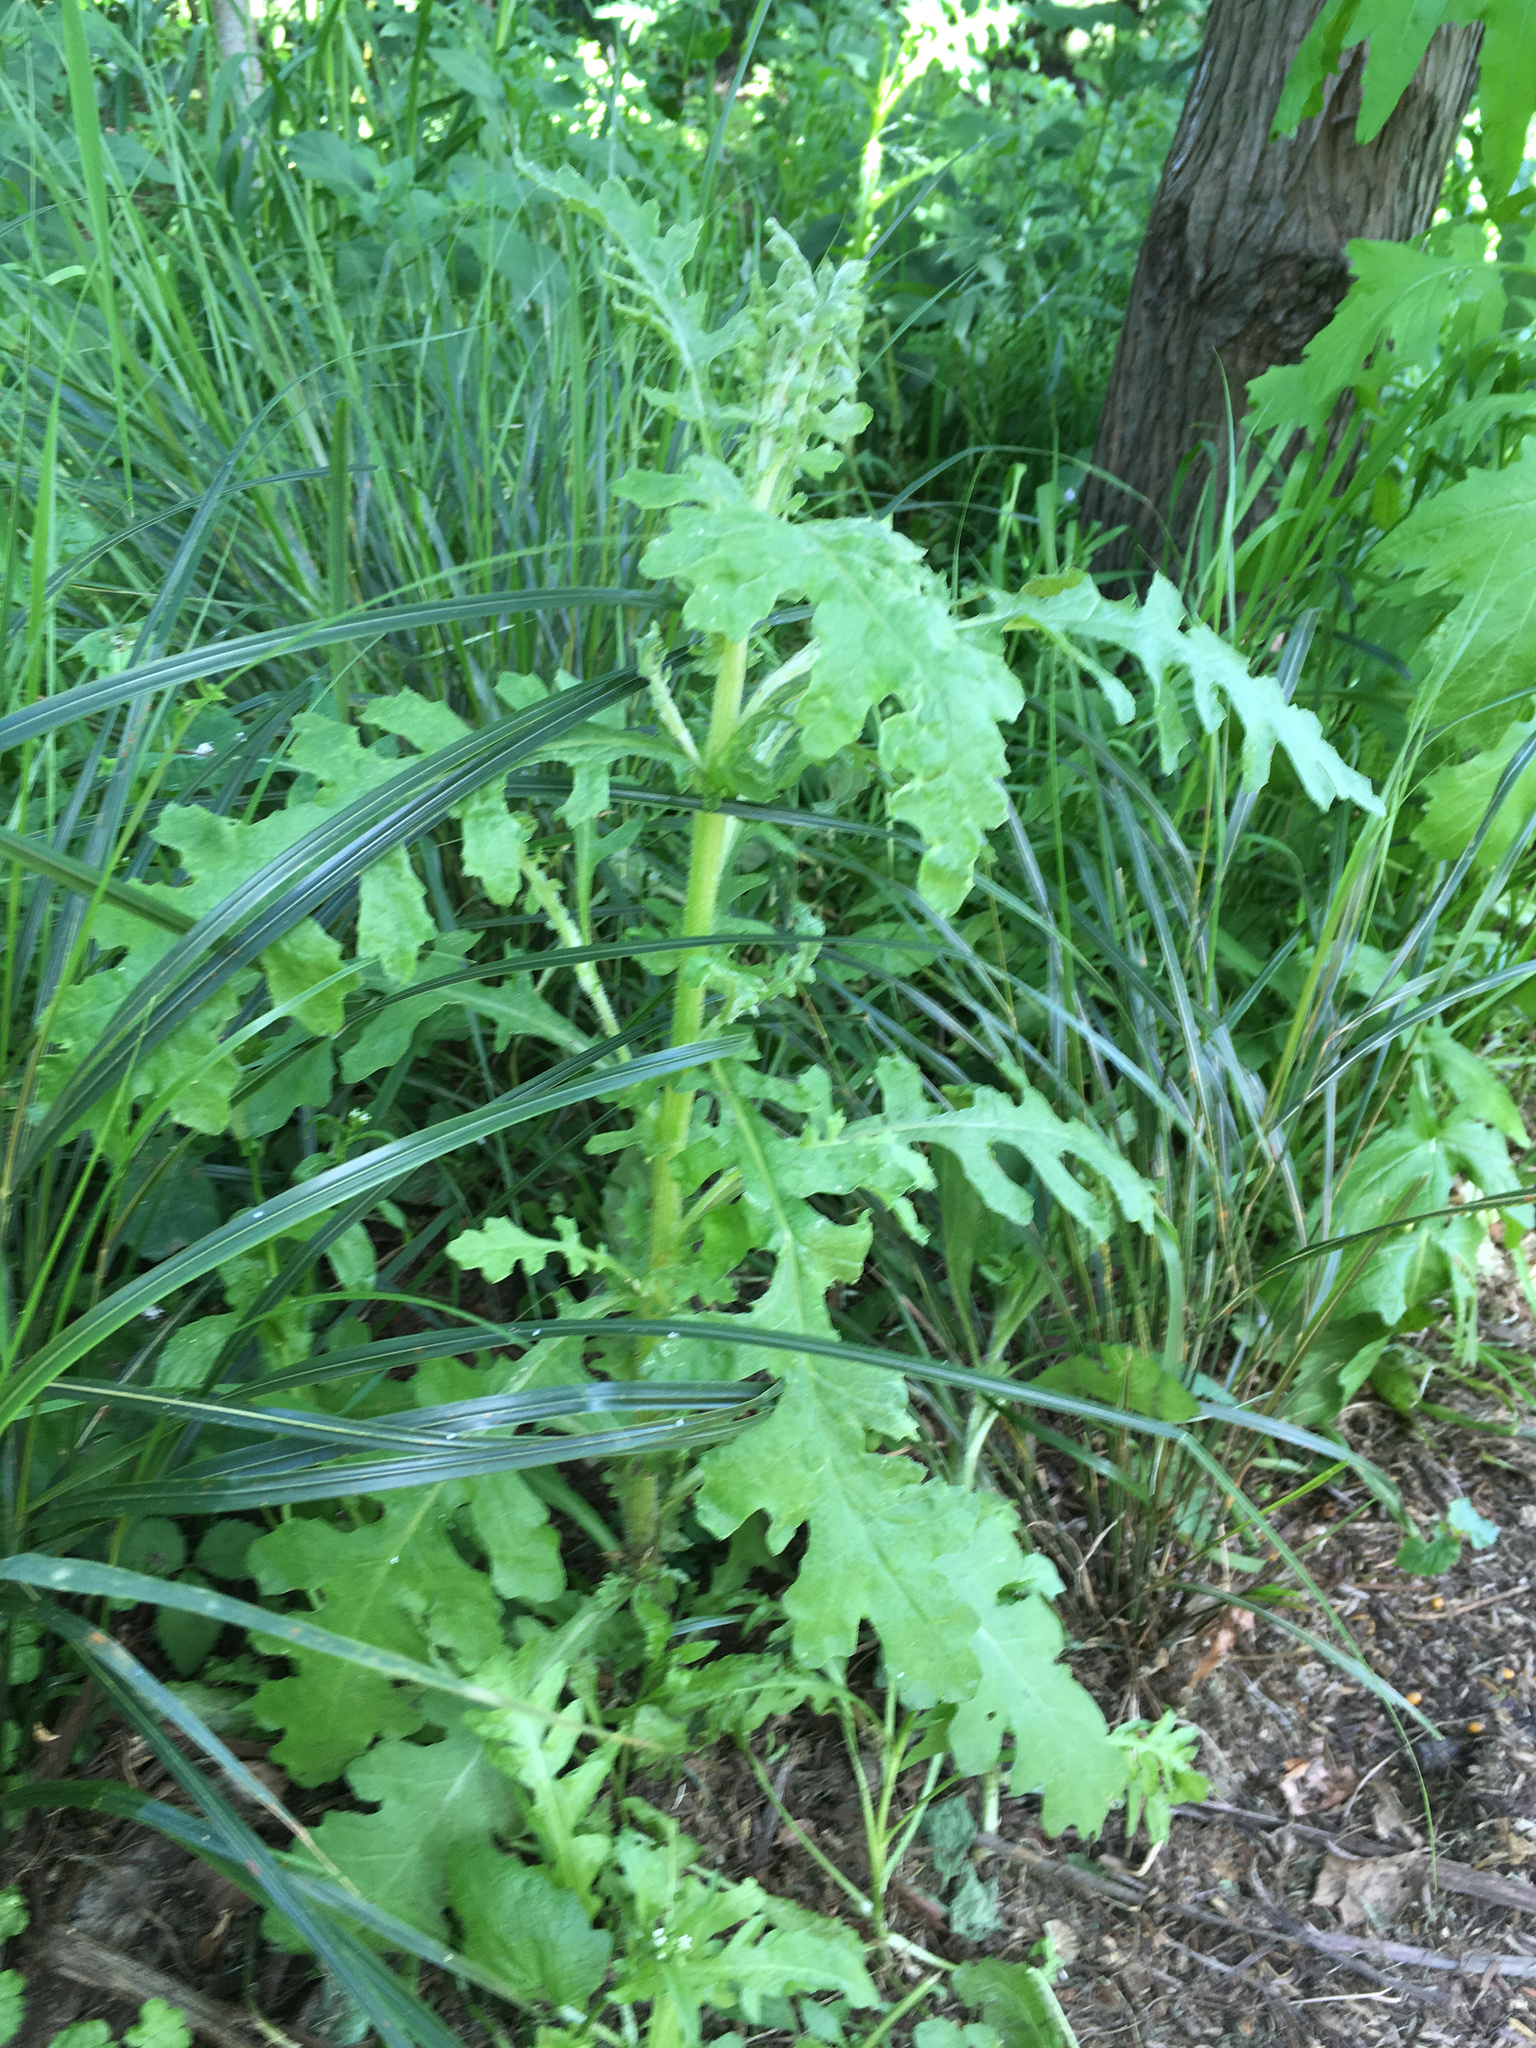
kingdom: Plantae
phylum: Tracheophyta
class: Magnoliopsida
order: Asterales
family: Asteraceae
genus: Senecio
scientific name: Senecio glomeratus
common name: Cutleaf burnweed
